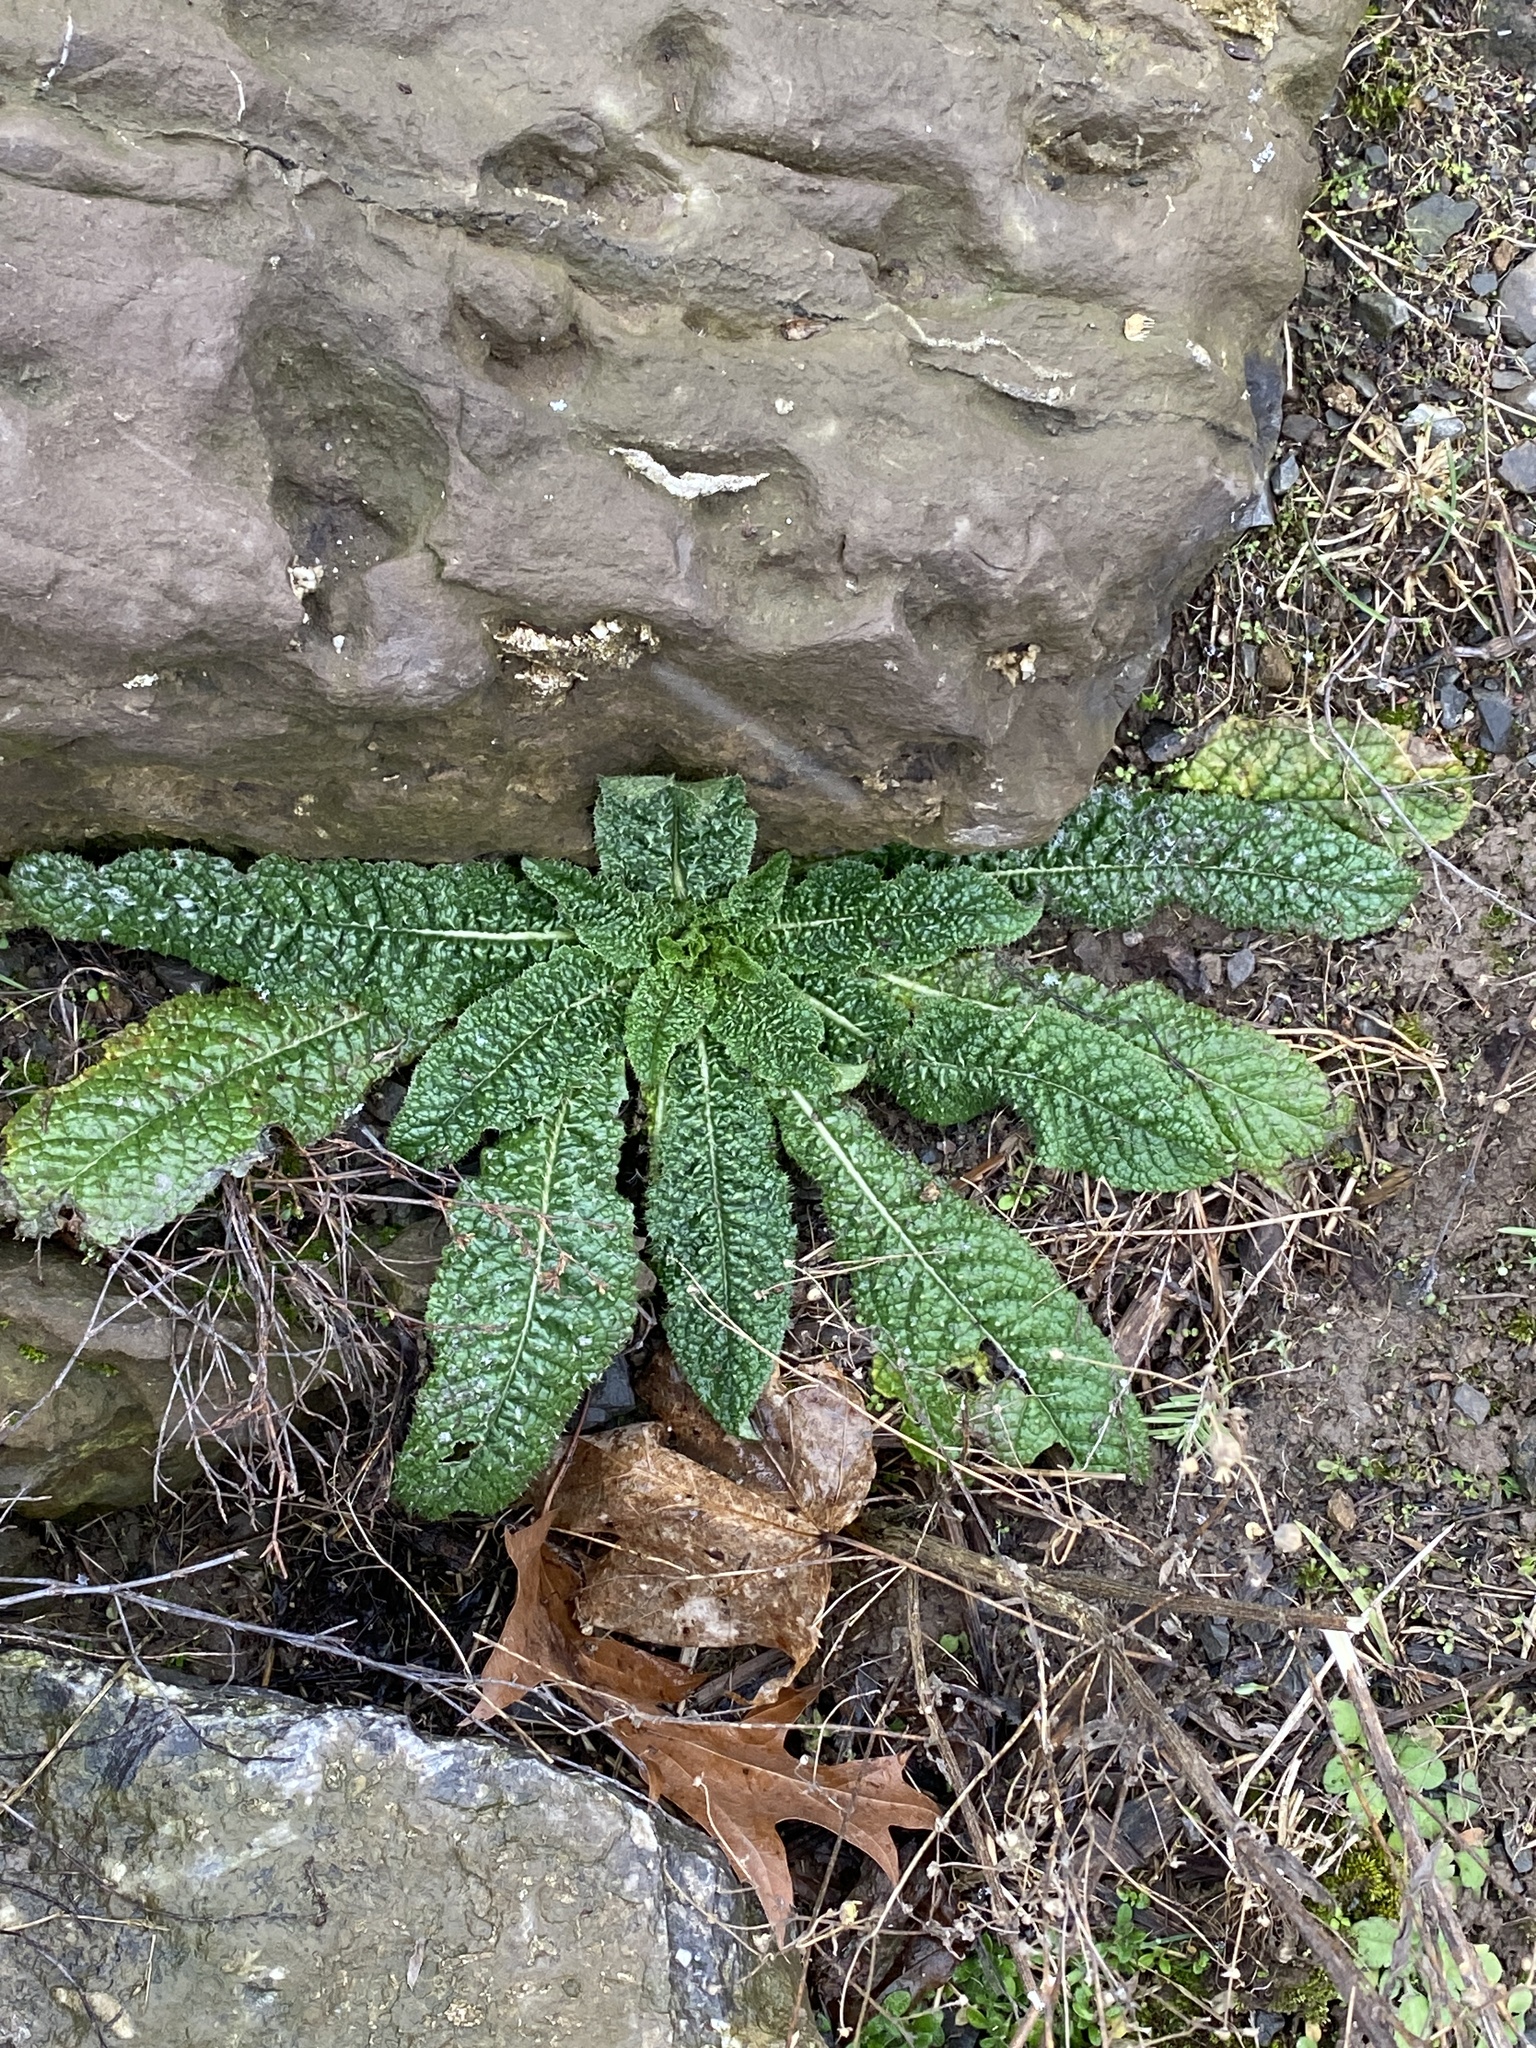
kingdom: Plantae
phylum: Tracheophyta
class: Magnoliopsida
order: Dipsacales
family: Caprifoliaceae
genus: Dipsacus
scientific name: Dipsacus fullonum
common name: Teasel
